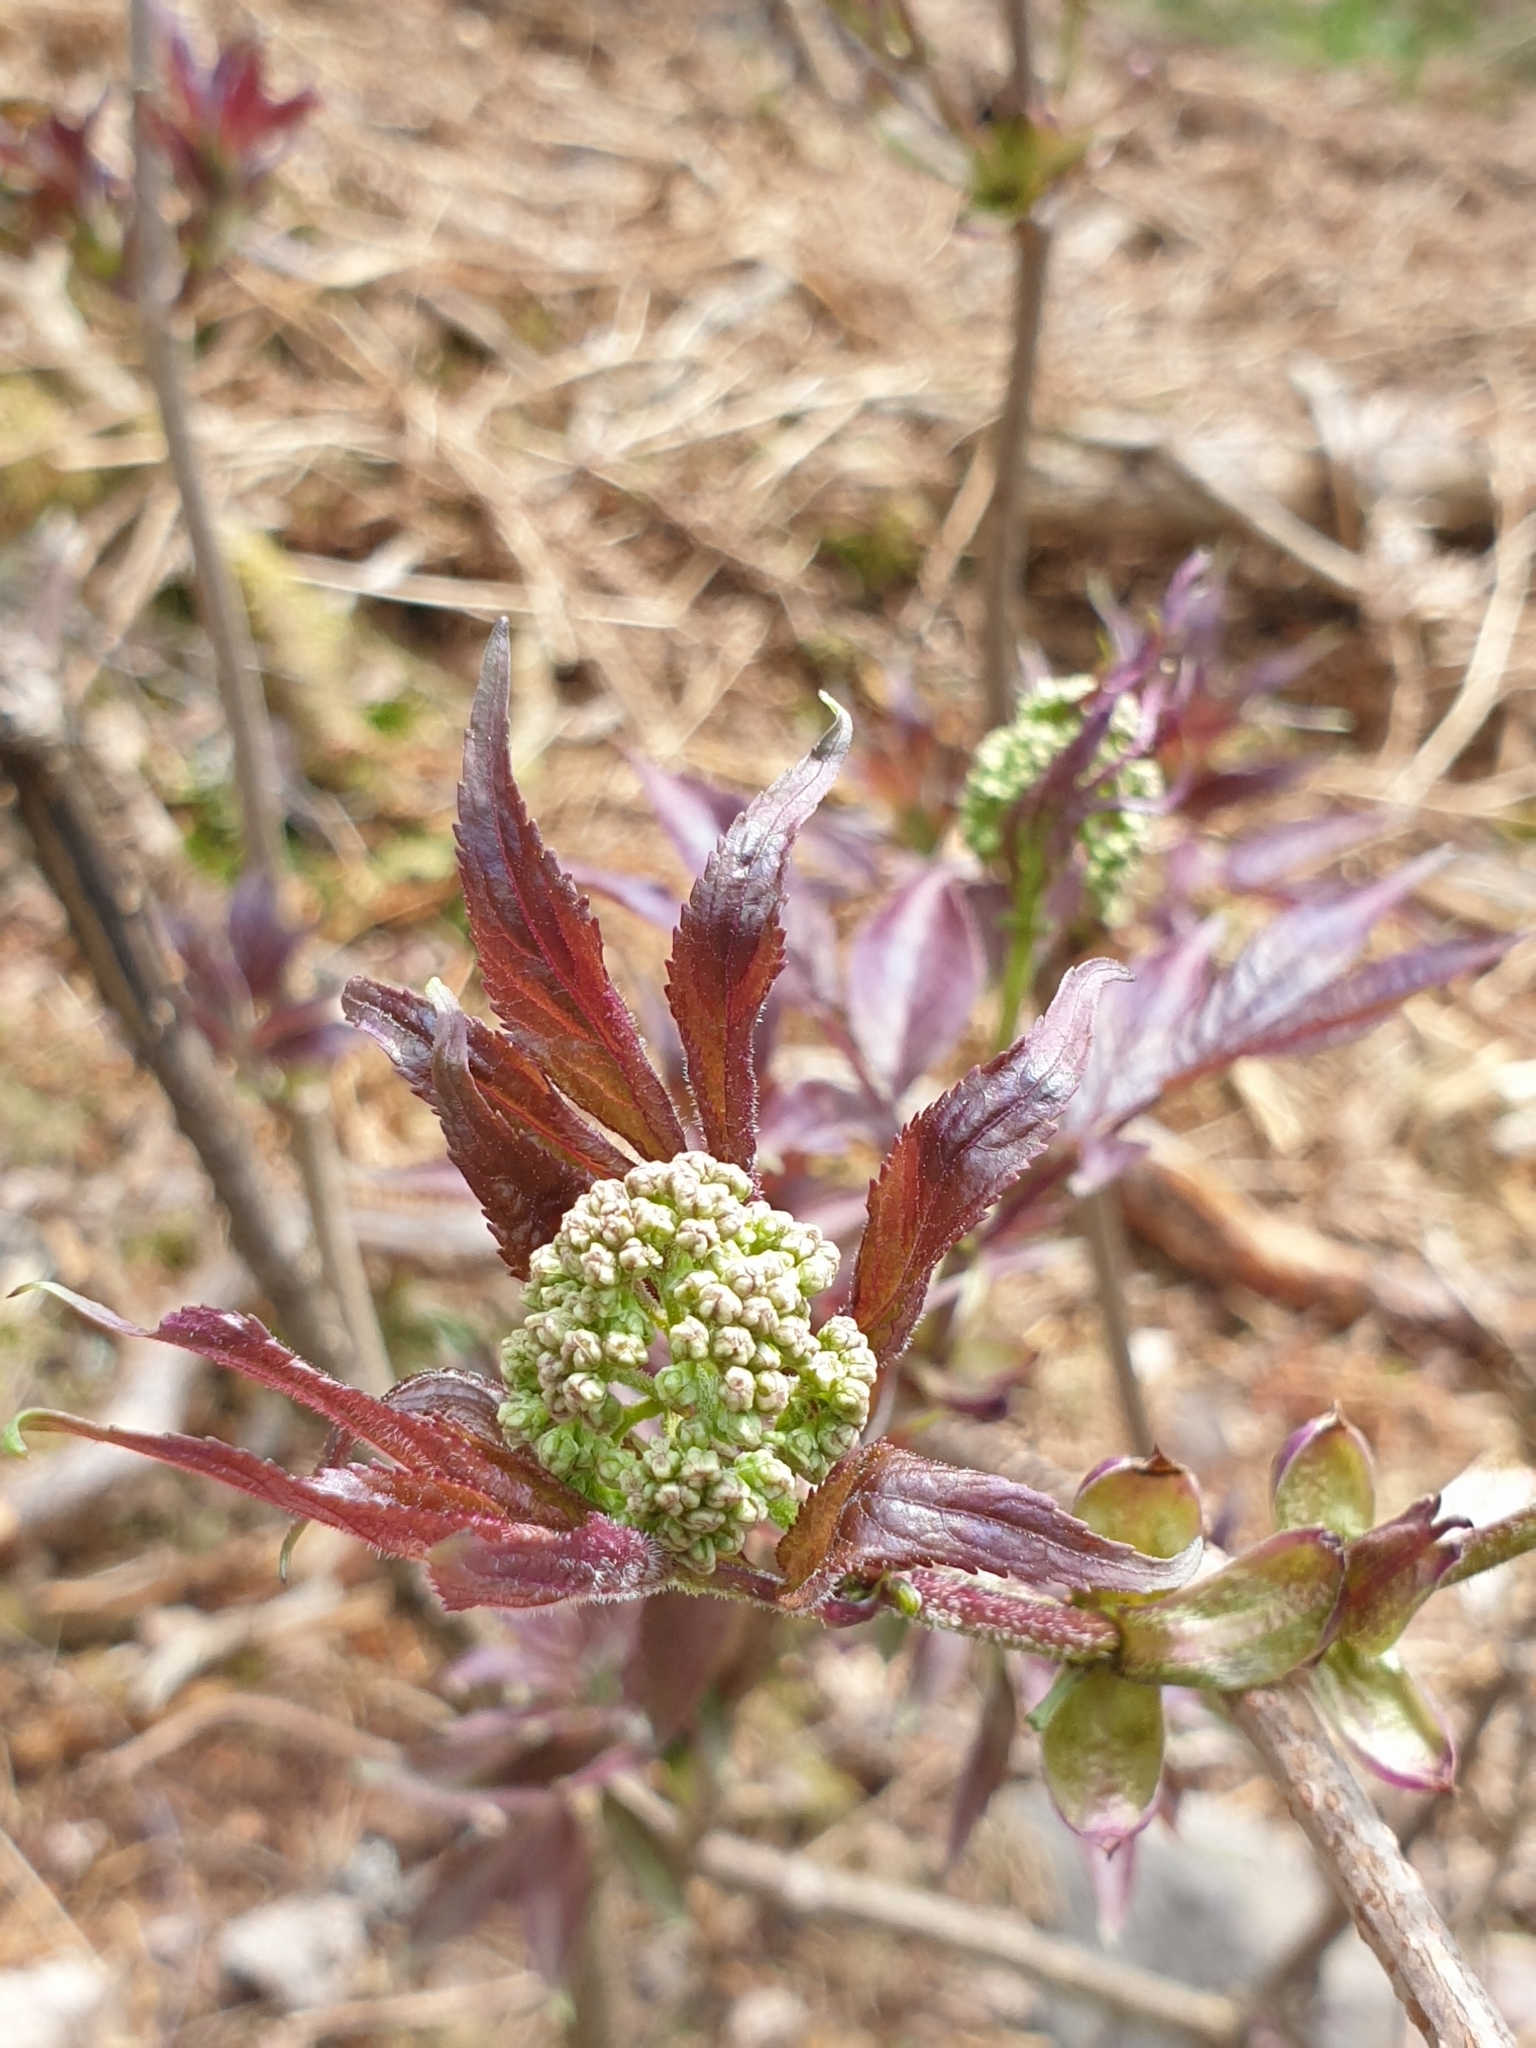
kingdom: Plantae
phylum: Tracheophyta
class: Magnoliopsida
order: Dipsacales
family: Viburnaceae
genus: Sambucus
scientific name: Sambucus racemosa
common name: Red-berried elder
